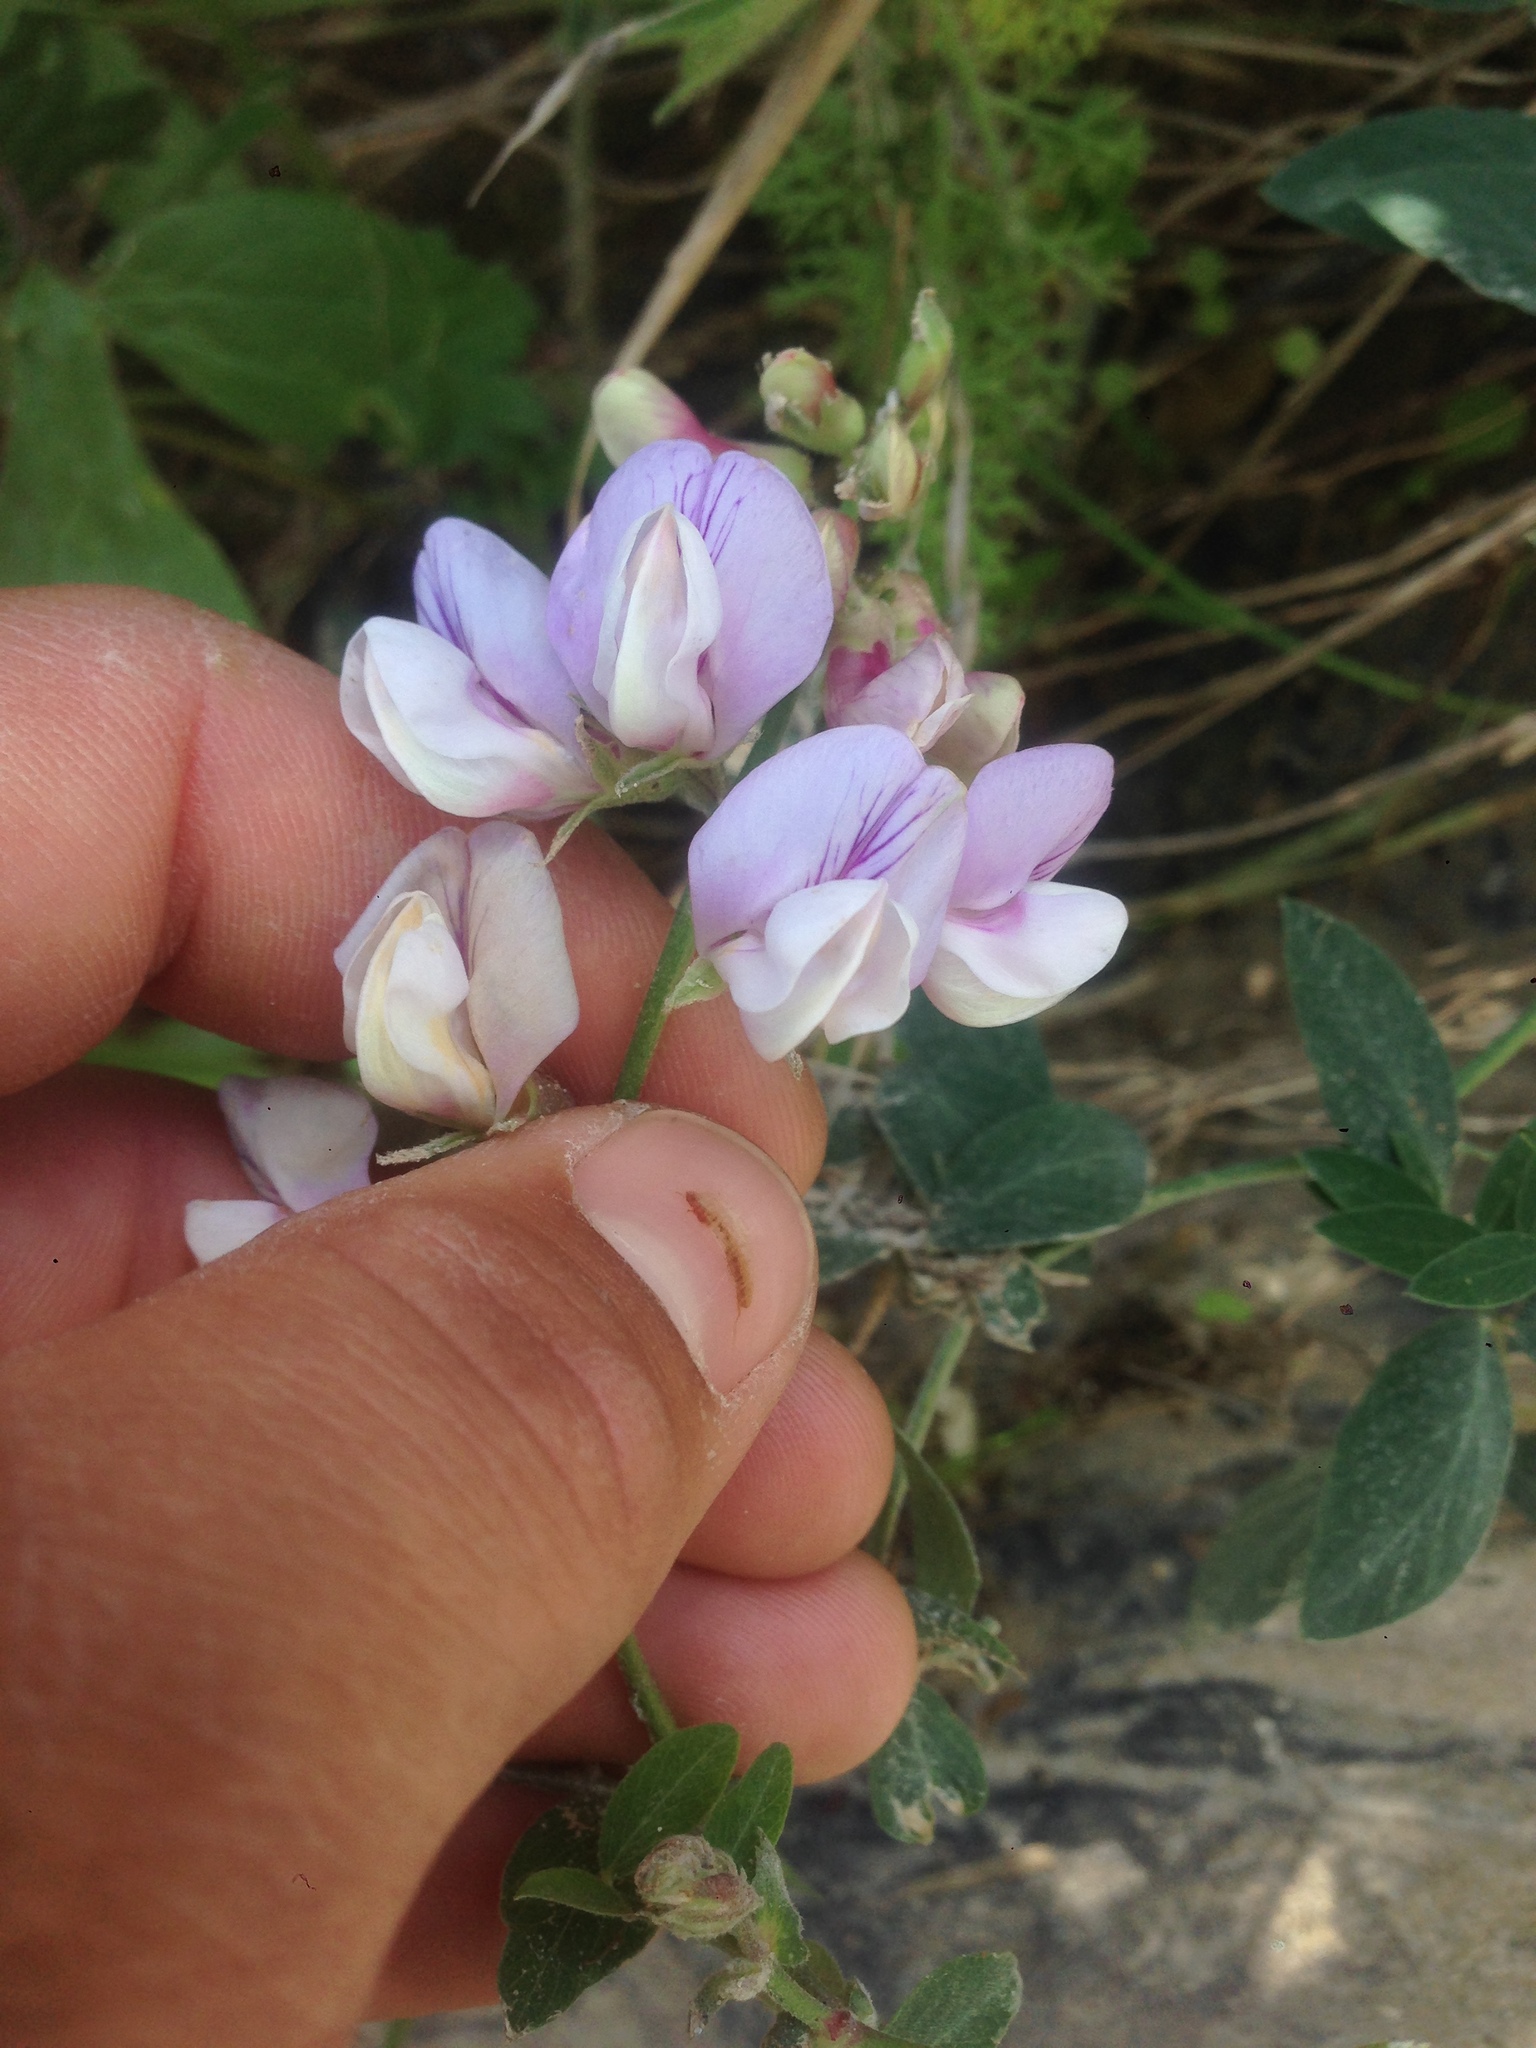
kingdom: Plantae
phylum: Tracheophyta
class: Magnoliopsida
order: Fabales
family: Fabaceae
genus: Lathyrus
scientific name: Lathyrus vestitus
